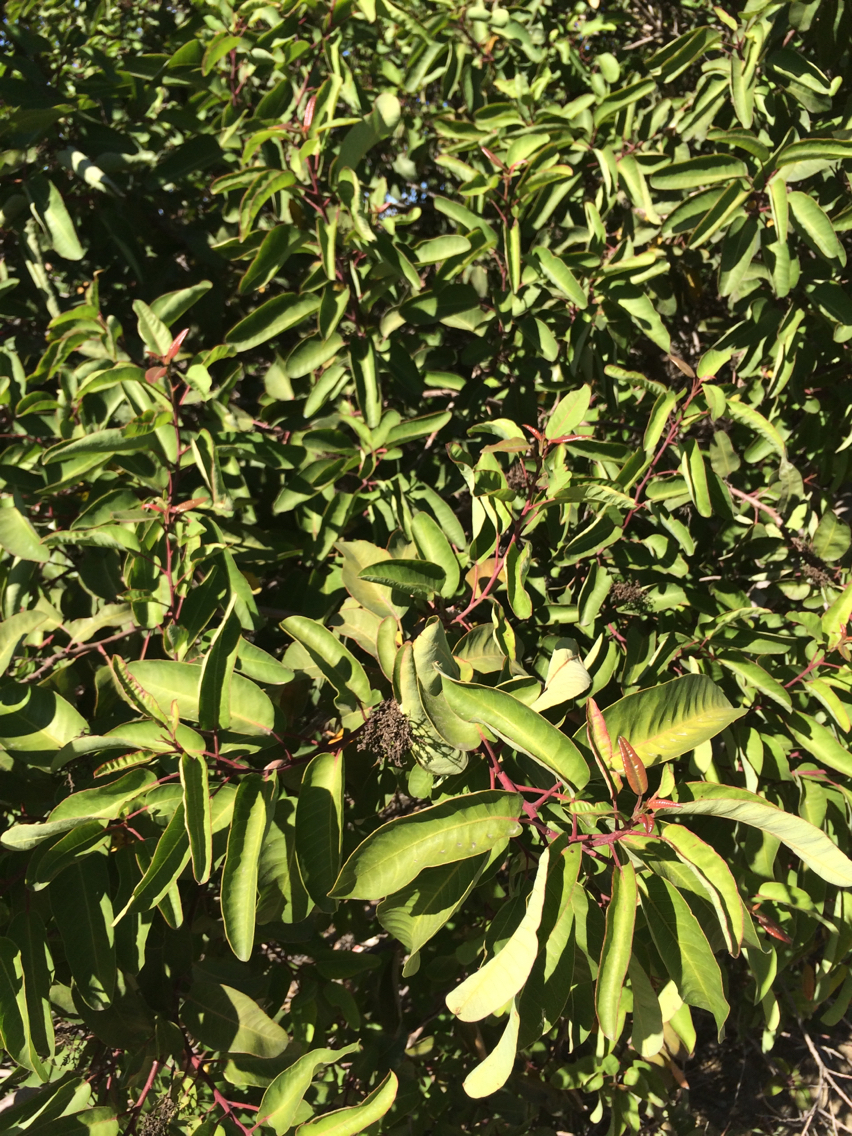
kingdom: Plantae
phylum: Tracheophyta
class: Magnoliopsida
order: Sapindales
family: Anacardiaceae
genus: Malosma
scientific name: Malosma laurina
